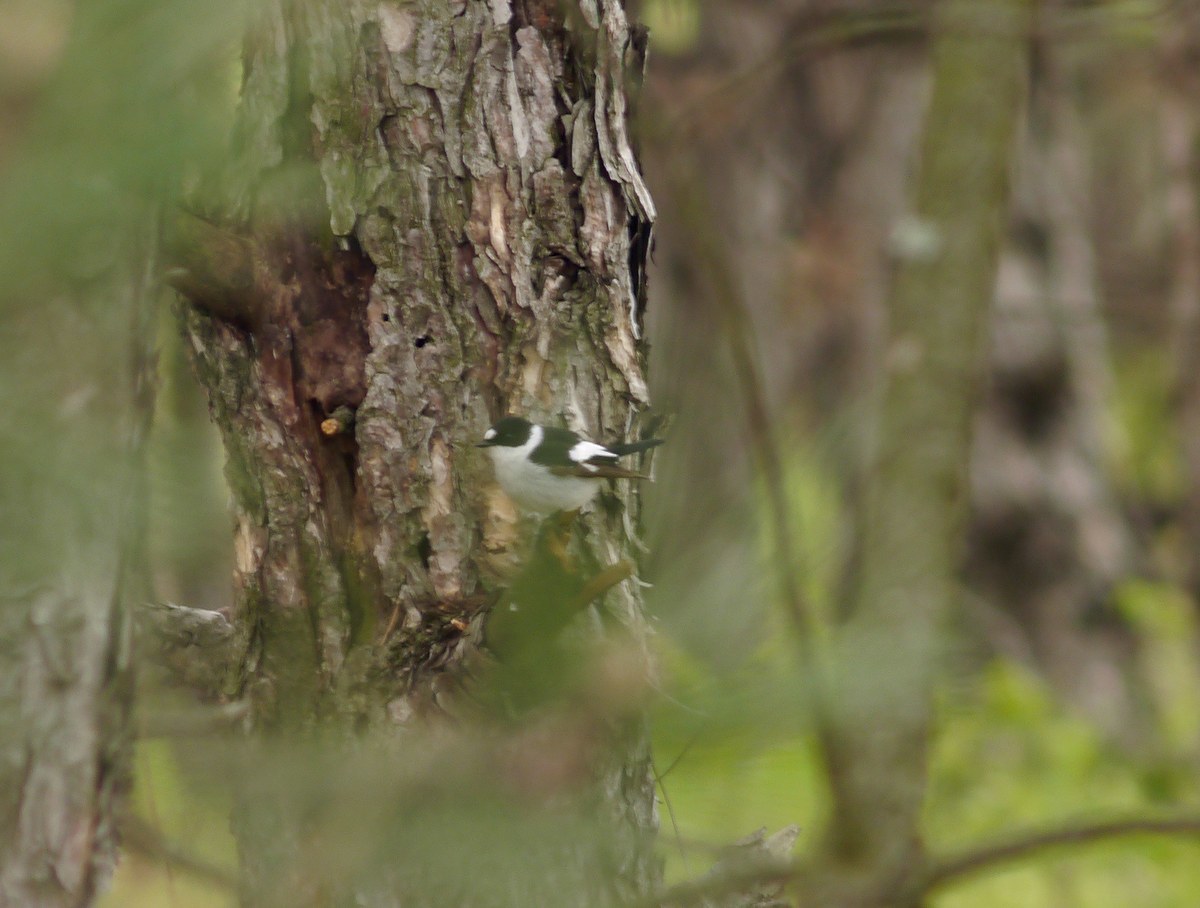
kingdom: Animalia
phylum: Chordata
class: Aves
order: Passeriformes
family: Muscicapidae
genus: Ficedula
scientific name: Ficedula albicollis
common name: Collared flycatcher
